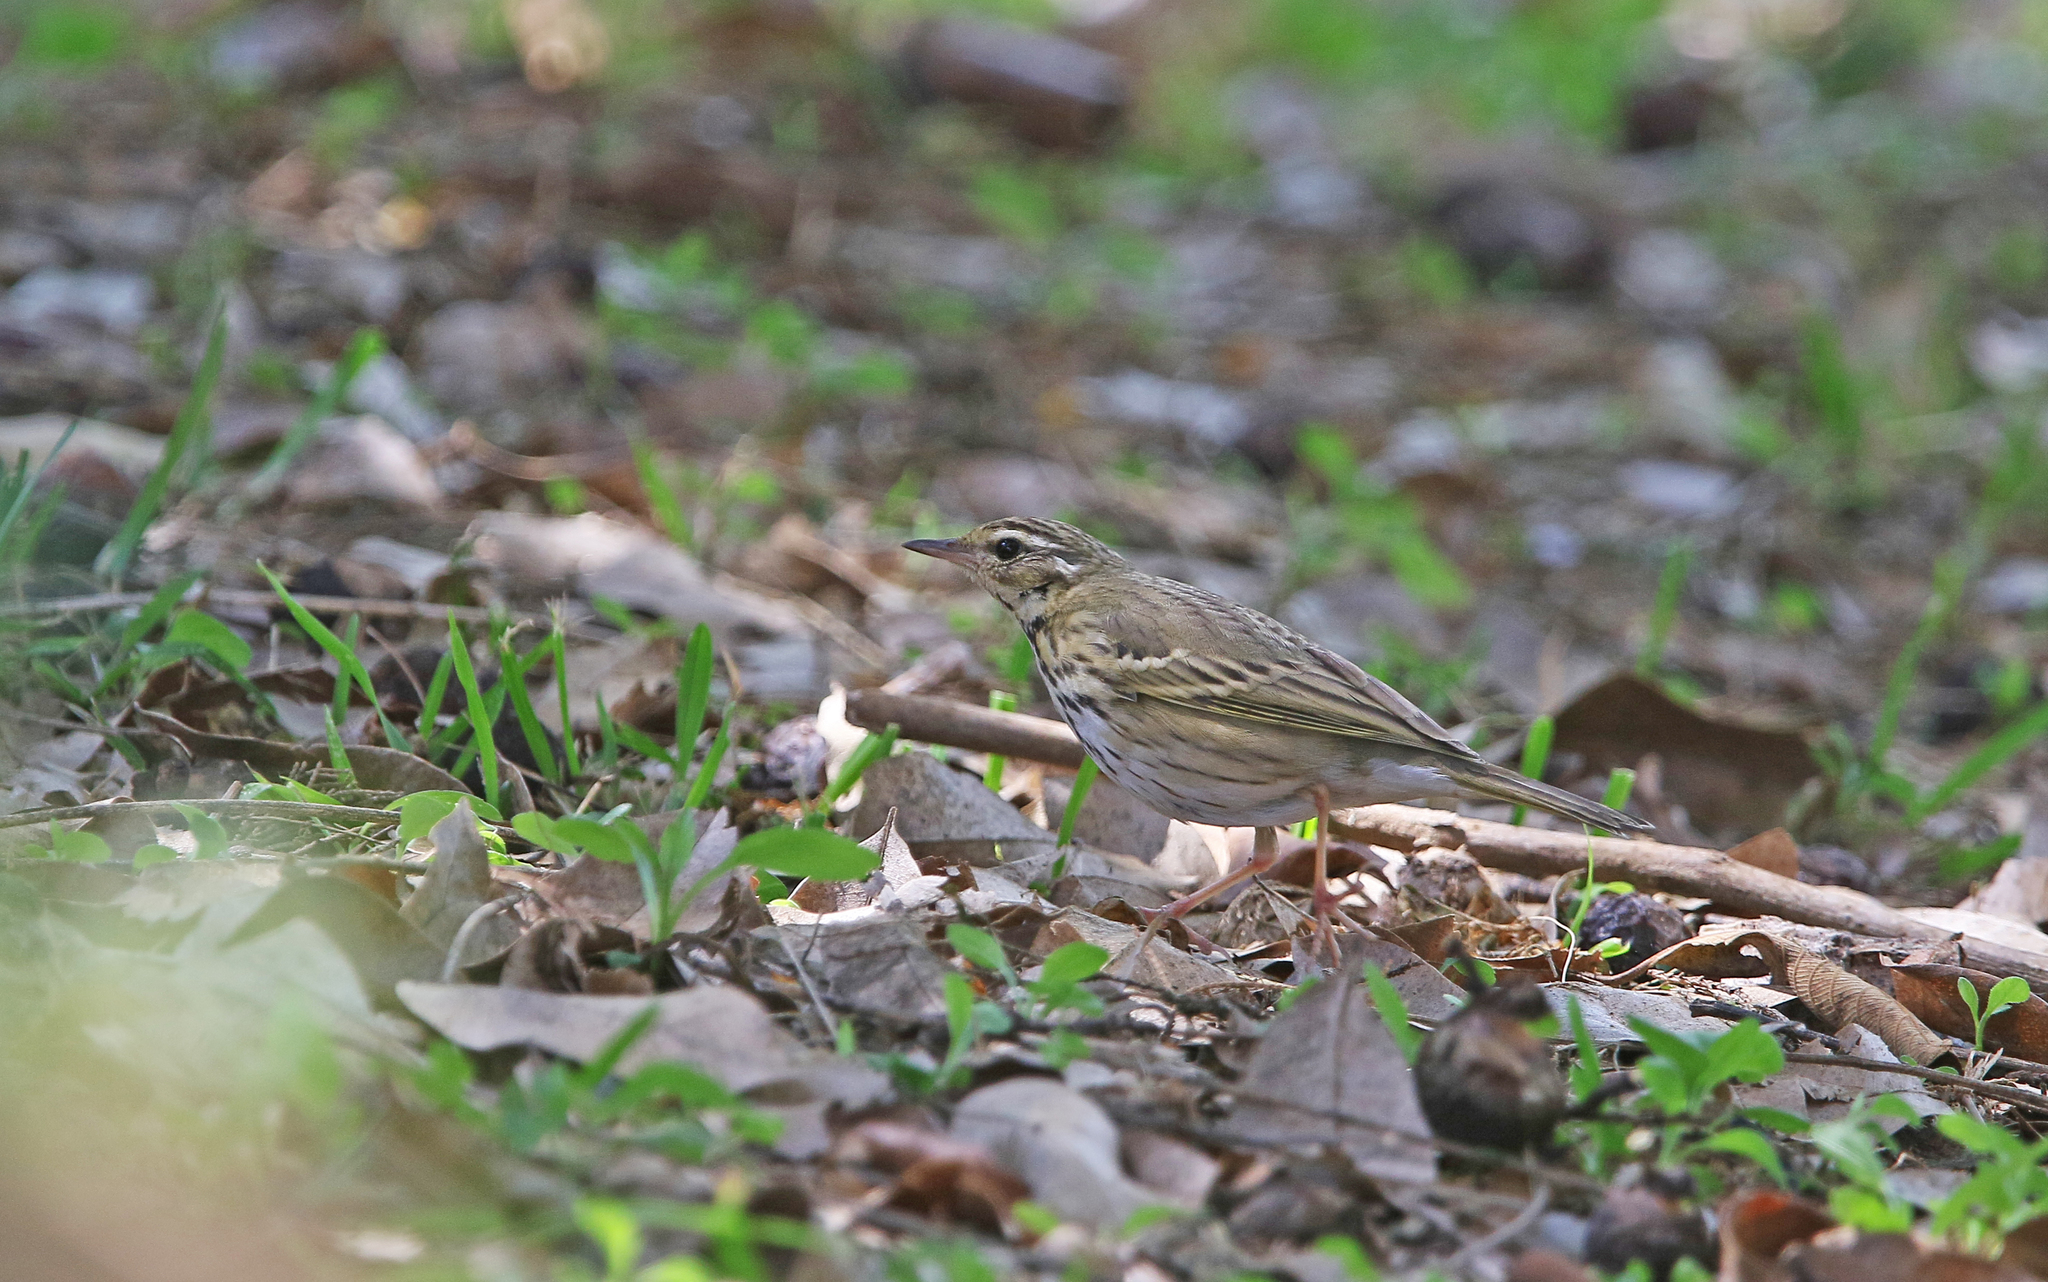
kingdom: Animalia
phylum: Chordata
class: Aves
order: Passeriformes
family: Motacillidae
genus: Anthus
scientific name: Anthus hodgsoni
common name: Olive-backed pipit
